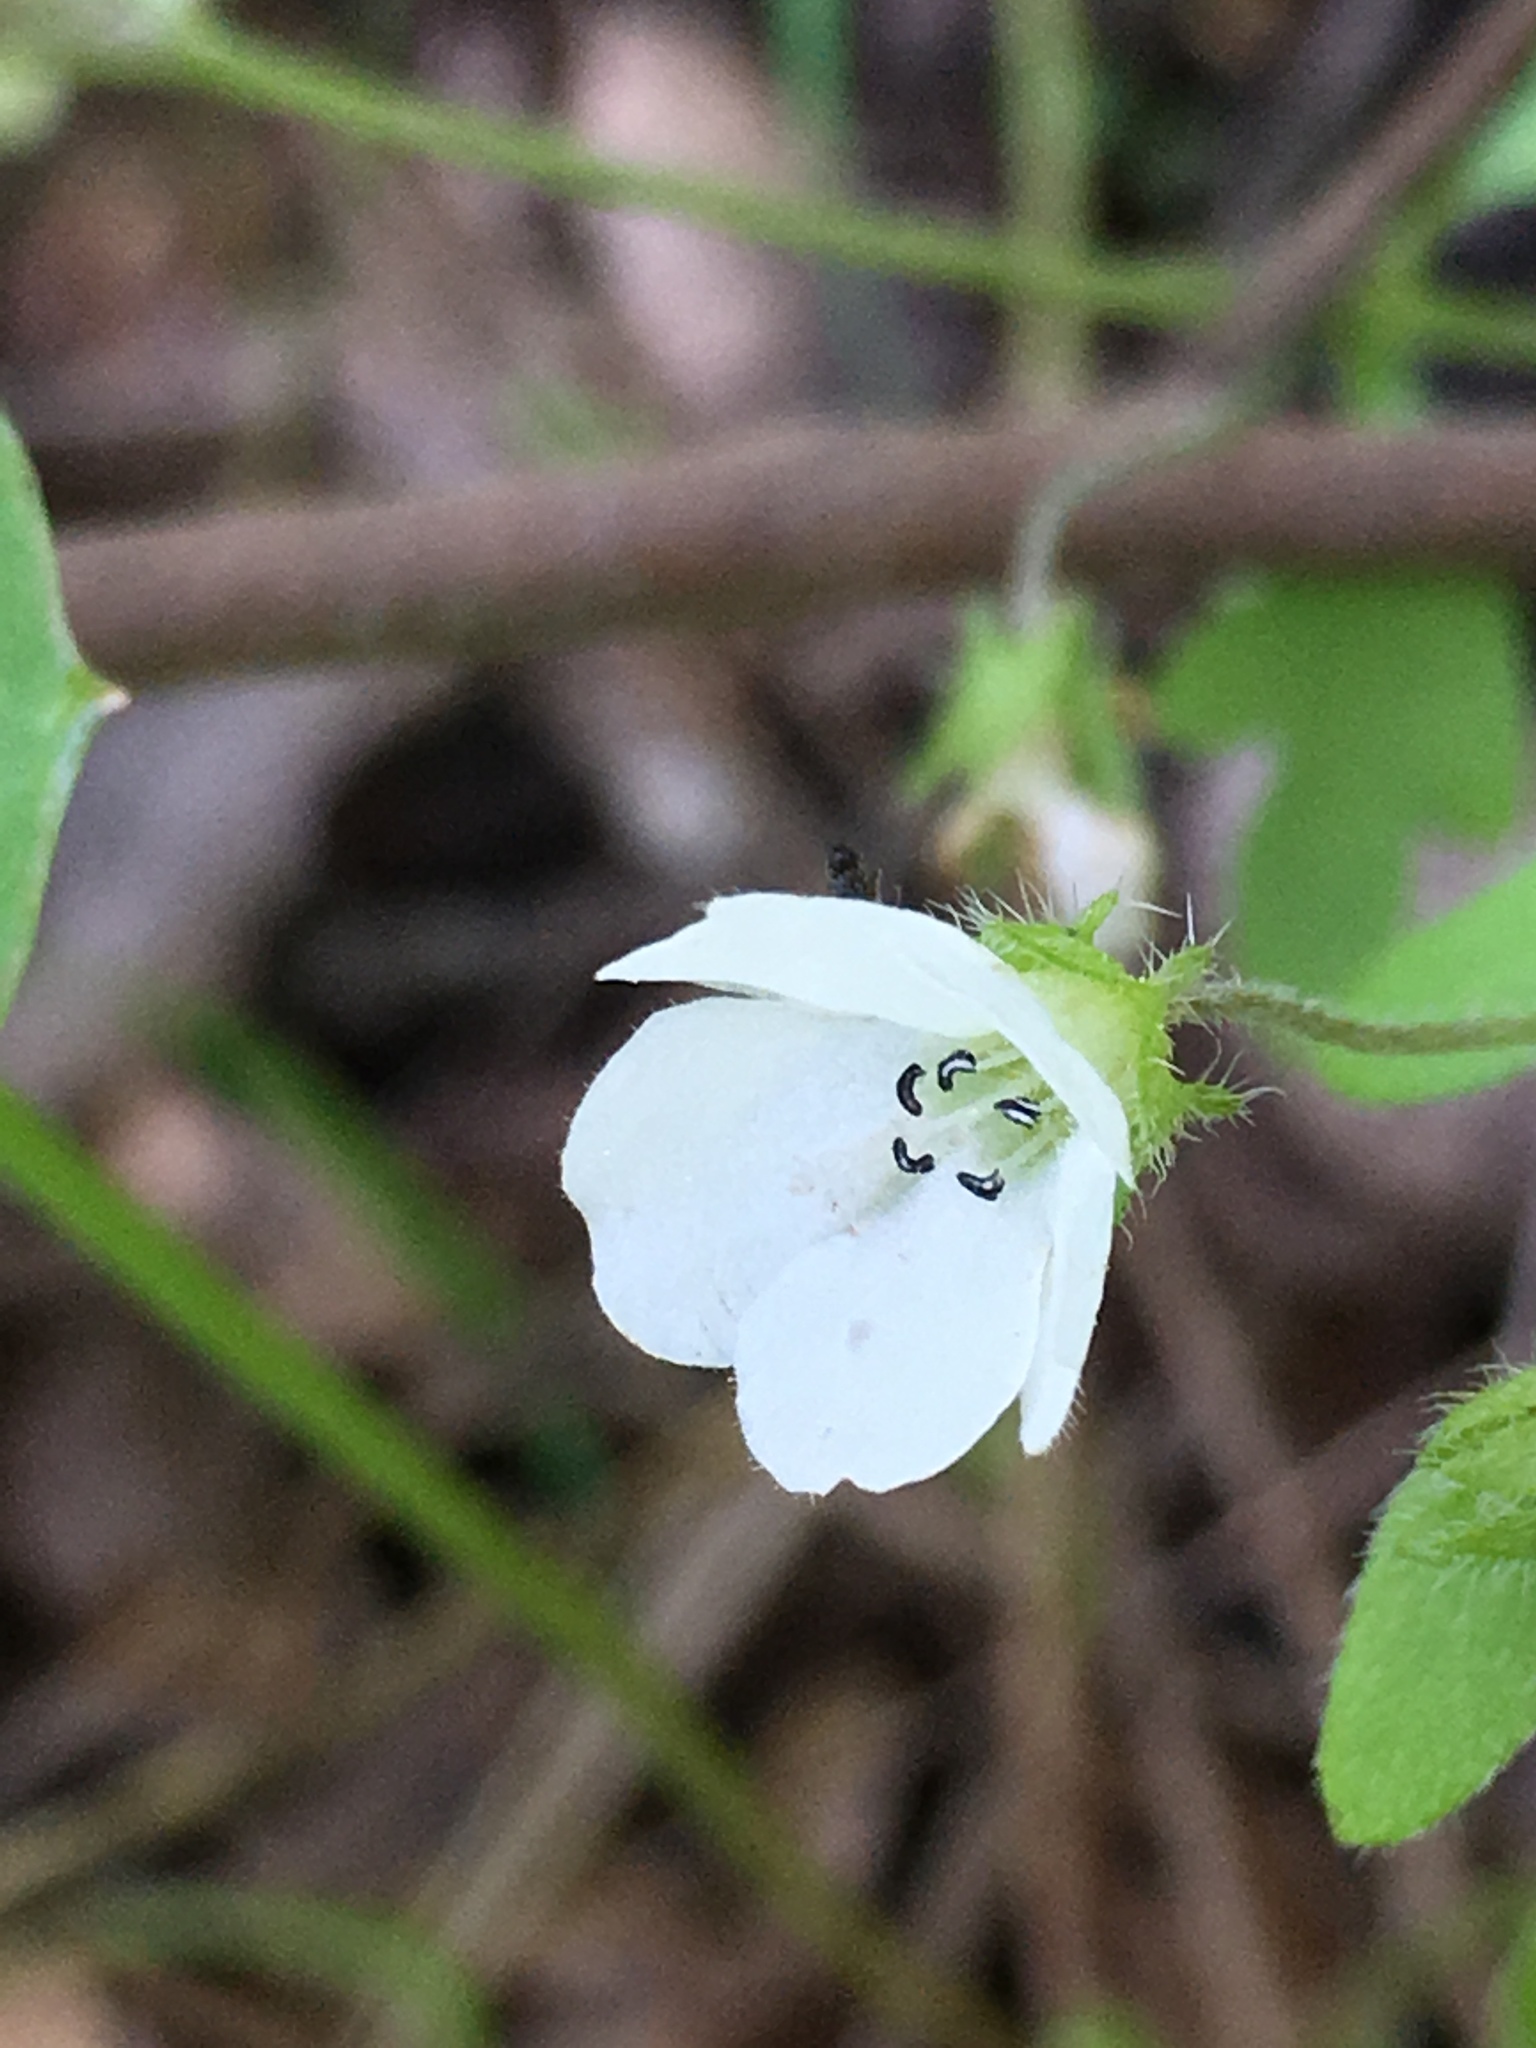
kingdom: Plantae
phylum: Tracheophyta
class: Magnoliopsida
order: Boraginales
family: Hydrophyllaceae
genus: Nemophila
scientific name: Nemophila heterophylla
